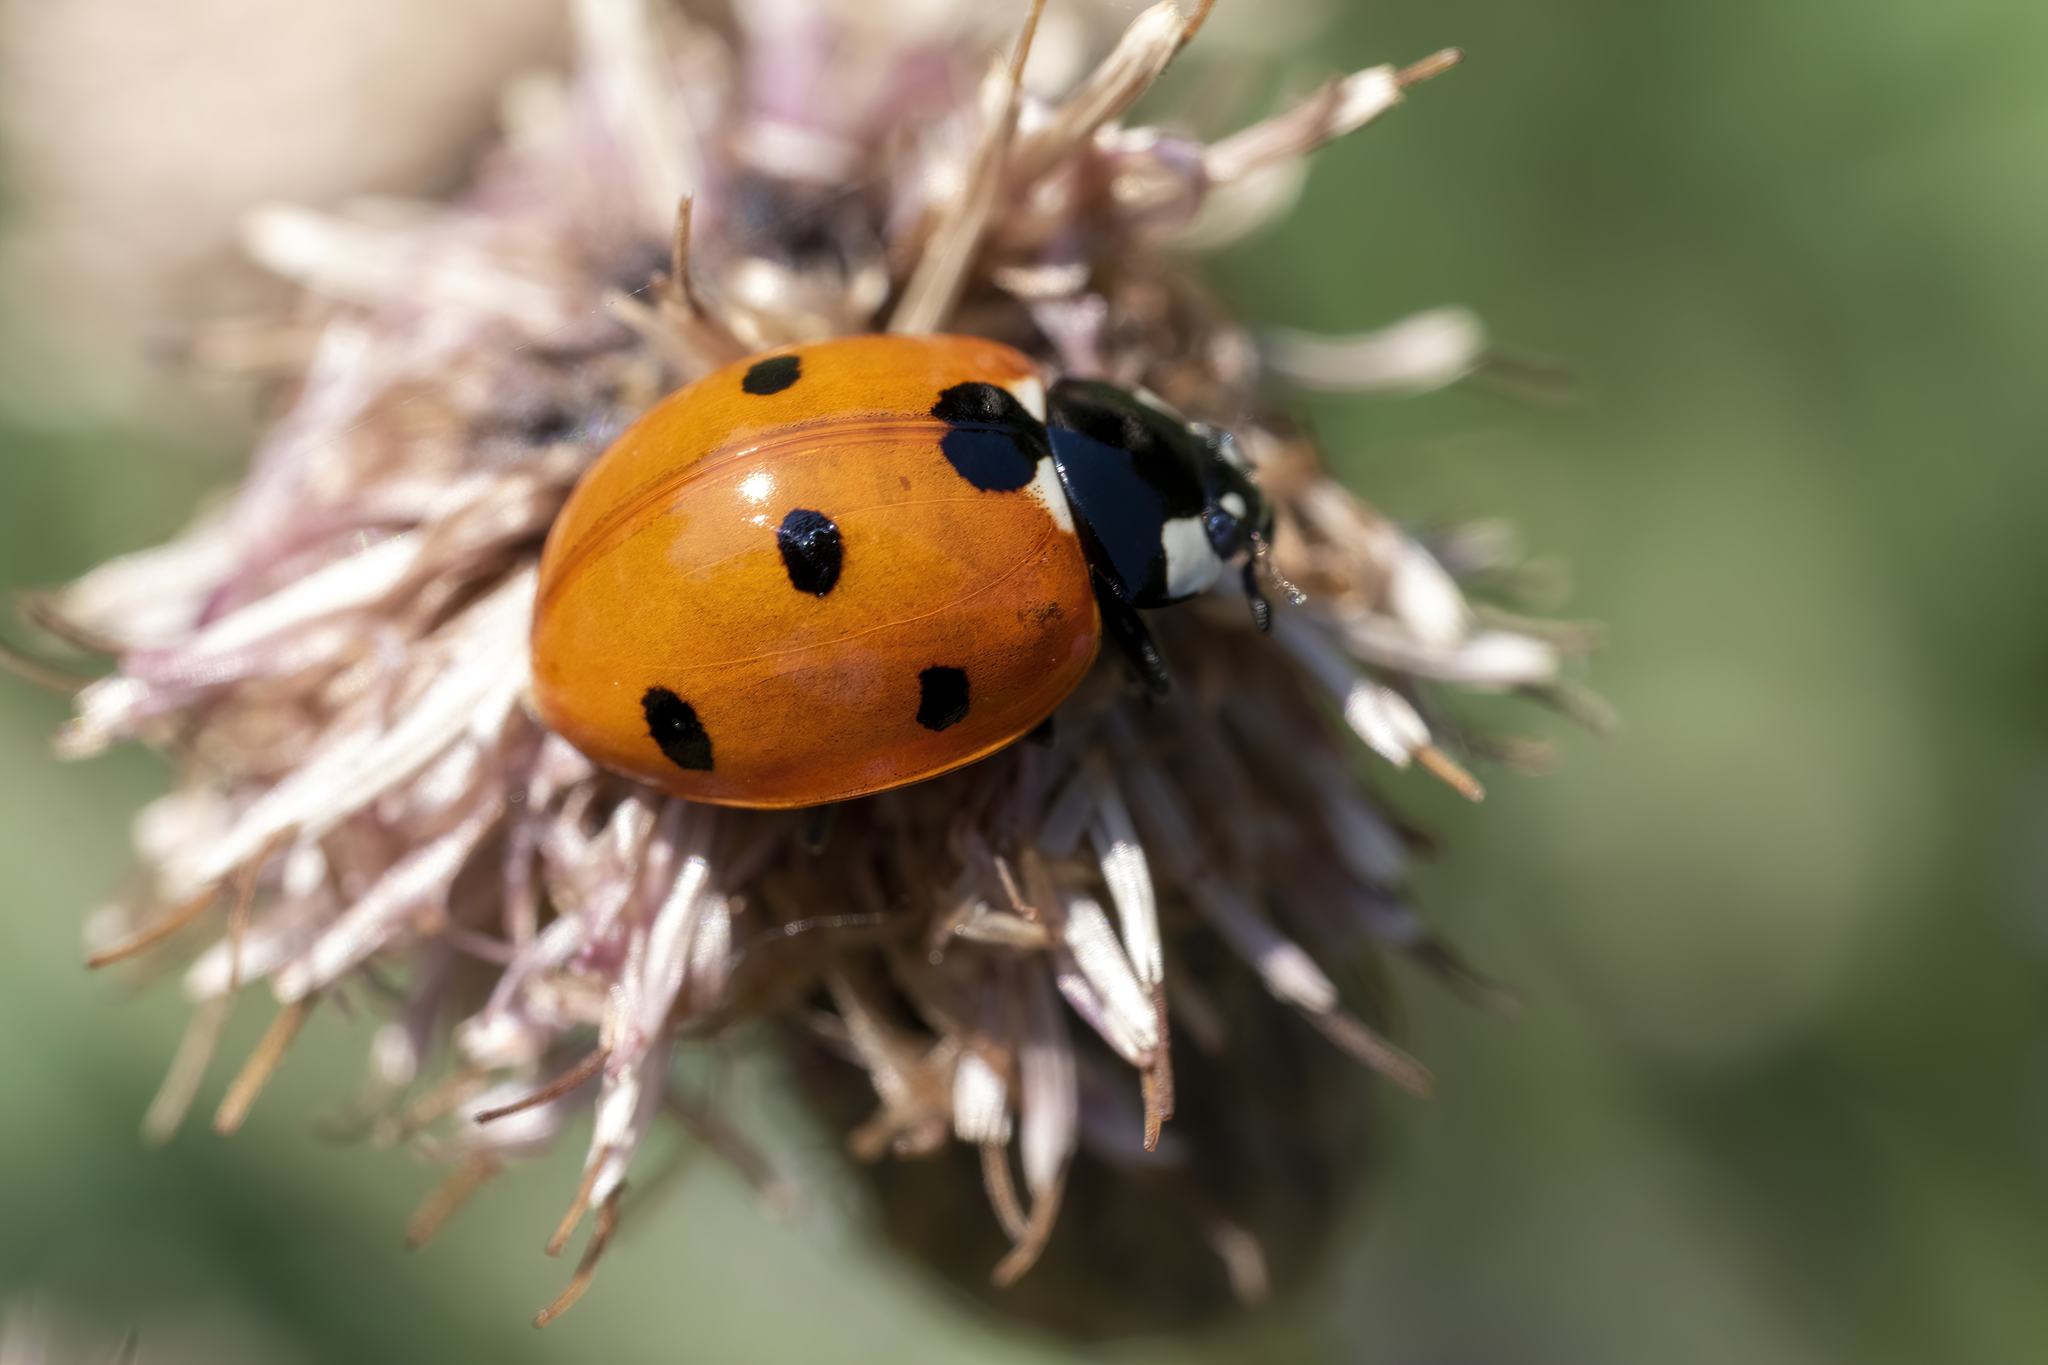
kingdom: Animalia
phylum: Arthropoda
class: Insecta
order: Coleoptera
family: Coccinellidae
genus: Coccinella
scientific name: Coccinella septempunctata
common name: Sevenspotted lady beetle
